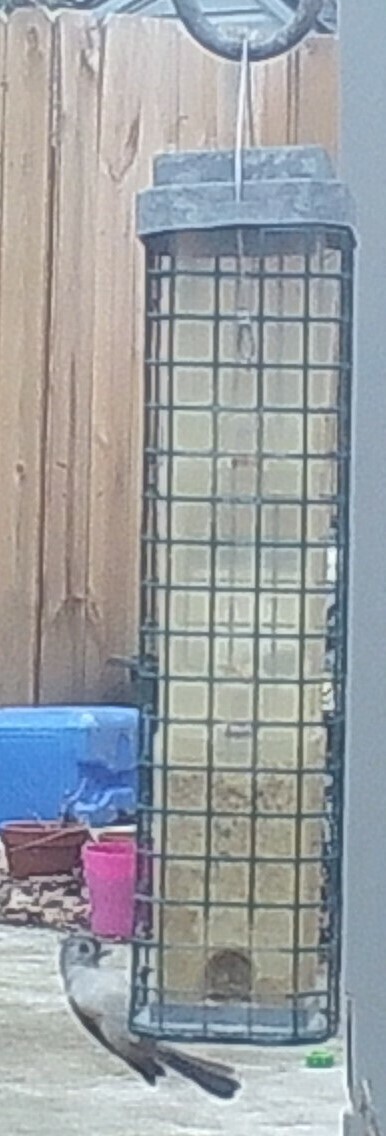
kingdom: Animalia
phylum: Chordata
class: Aves
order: Passeriformes
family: Paridae
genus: Baeolophus
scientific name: Baeolophus bicolor
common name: Tufted titmouse
